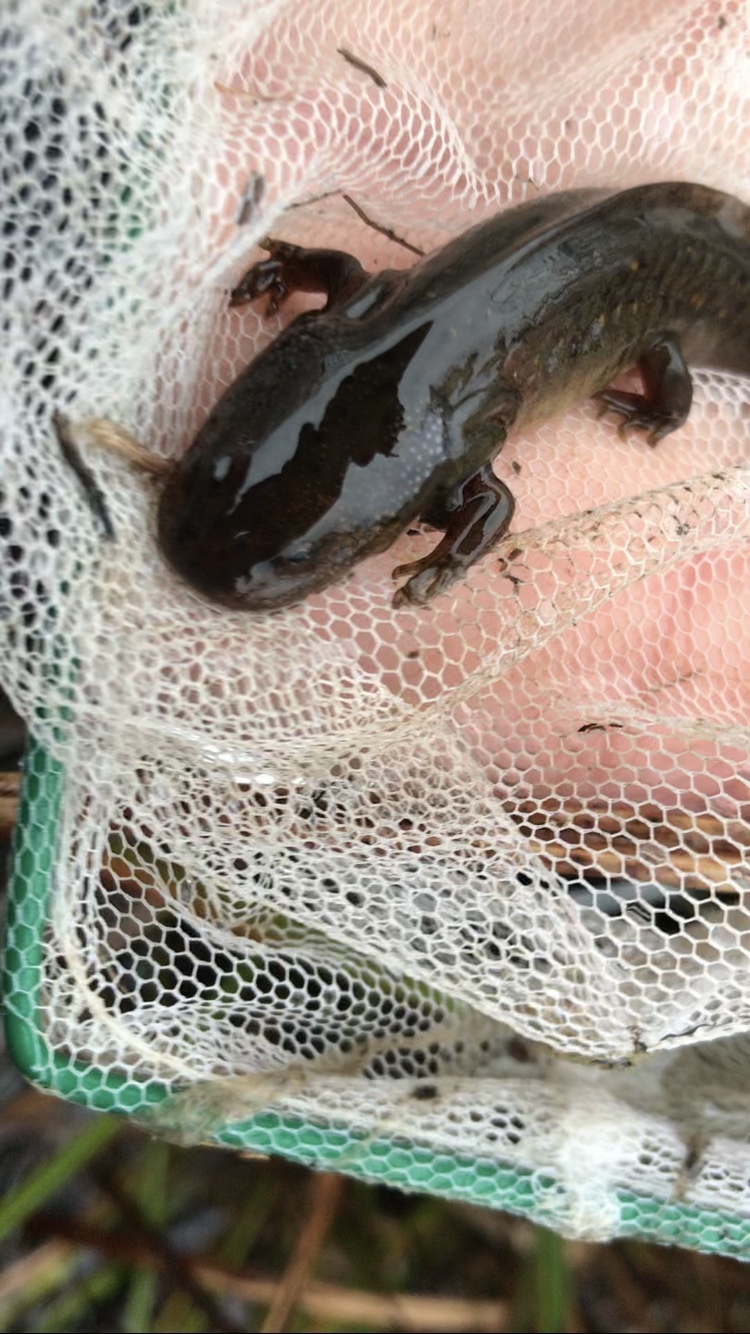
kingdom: Animalia
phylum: Chordata
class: Amphibia
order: Caudata
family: Ambystomatidae
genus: Ambystoma
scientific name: Ambystoma gracile
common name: Northwestern salamander
